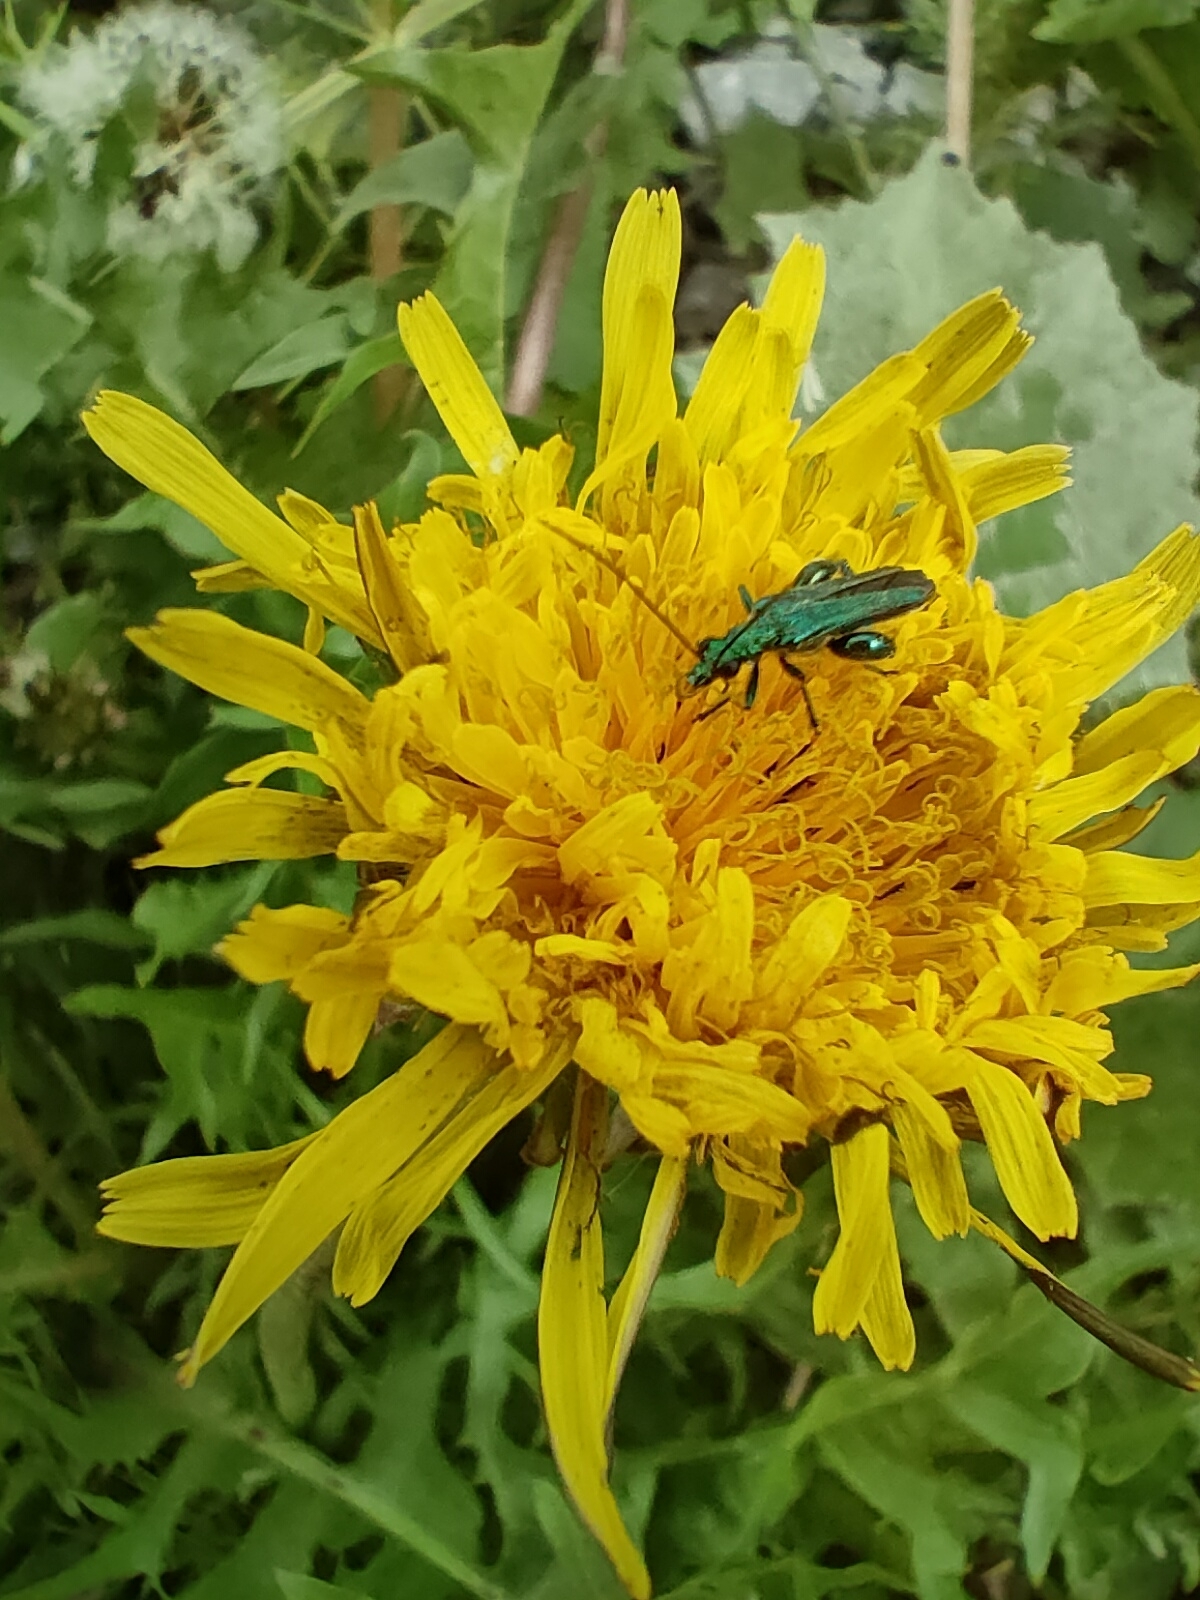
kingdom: Animalia
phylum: Arthropoda
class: Insecta
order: Coleoptera
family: Oedemeridae
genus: Oedemera
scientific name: Oedemera nobilis
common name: Swollen-thighed beetle
